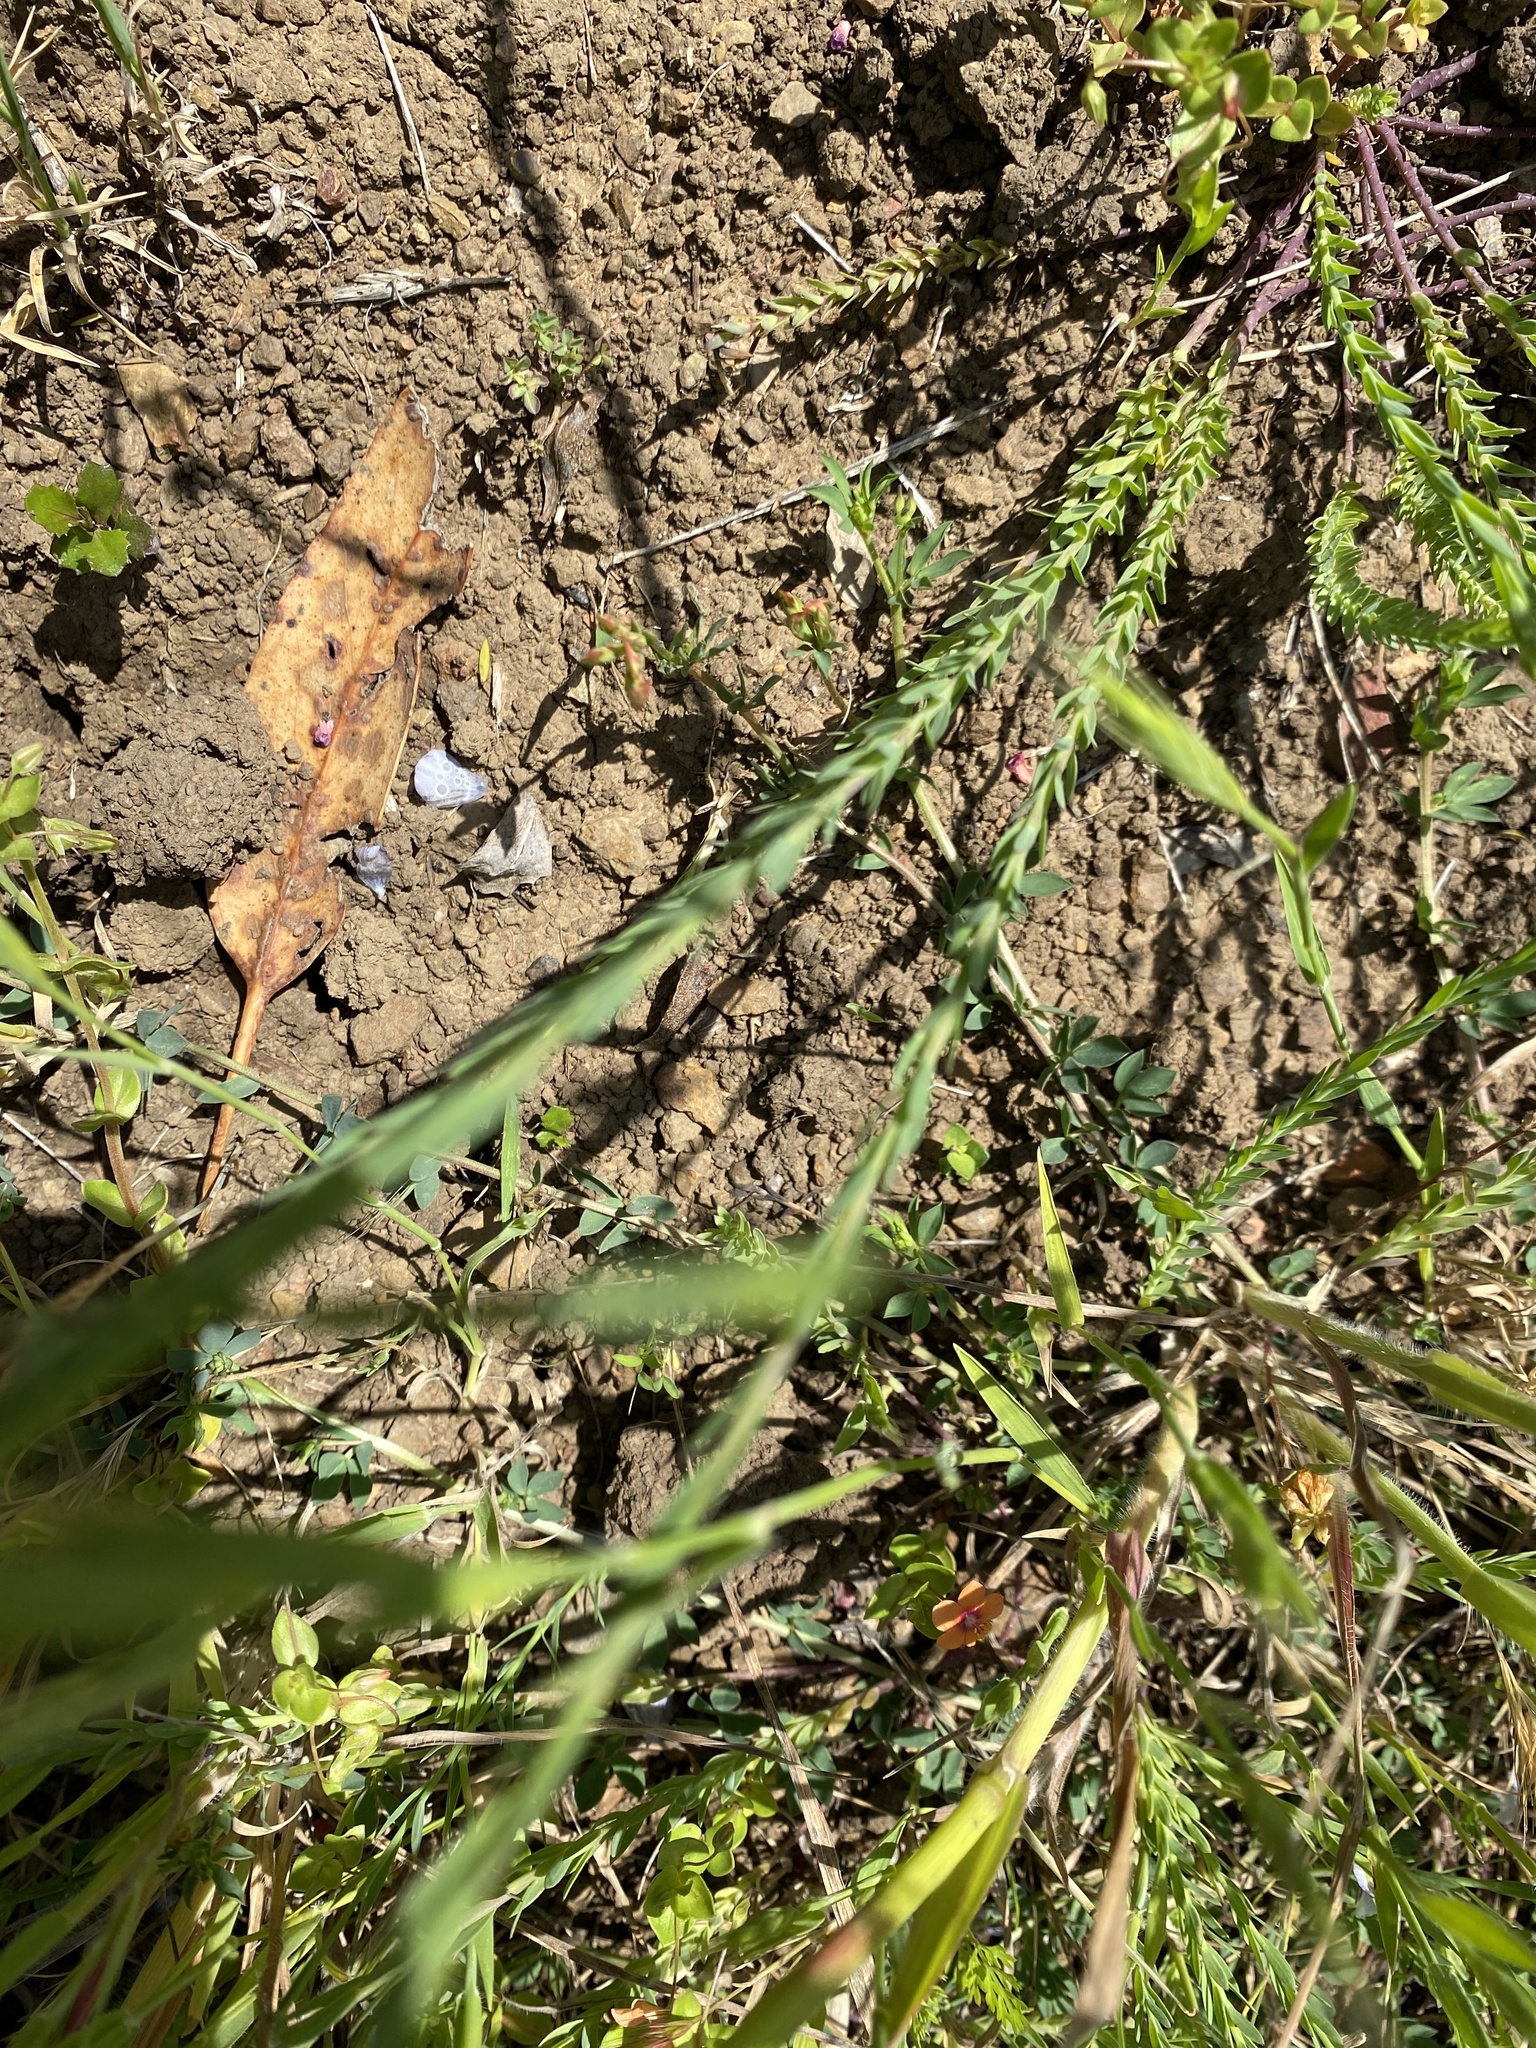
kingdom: Plantae
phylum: Tracheophyta
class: Magnoliopsida
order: Malpighiales
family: Linaceae
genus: Linum
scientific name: Linum bienne
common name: Pale flax
